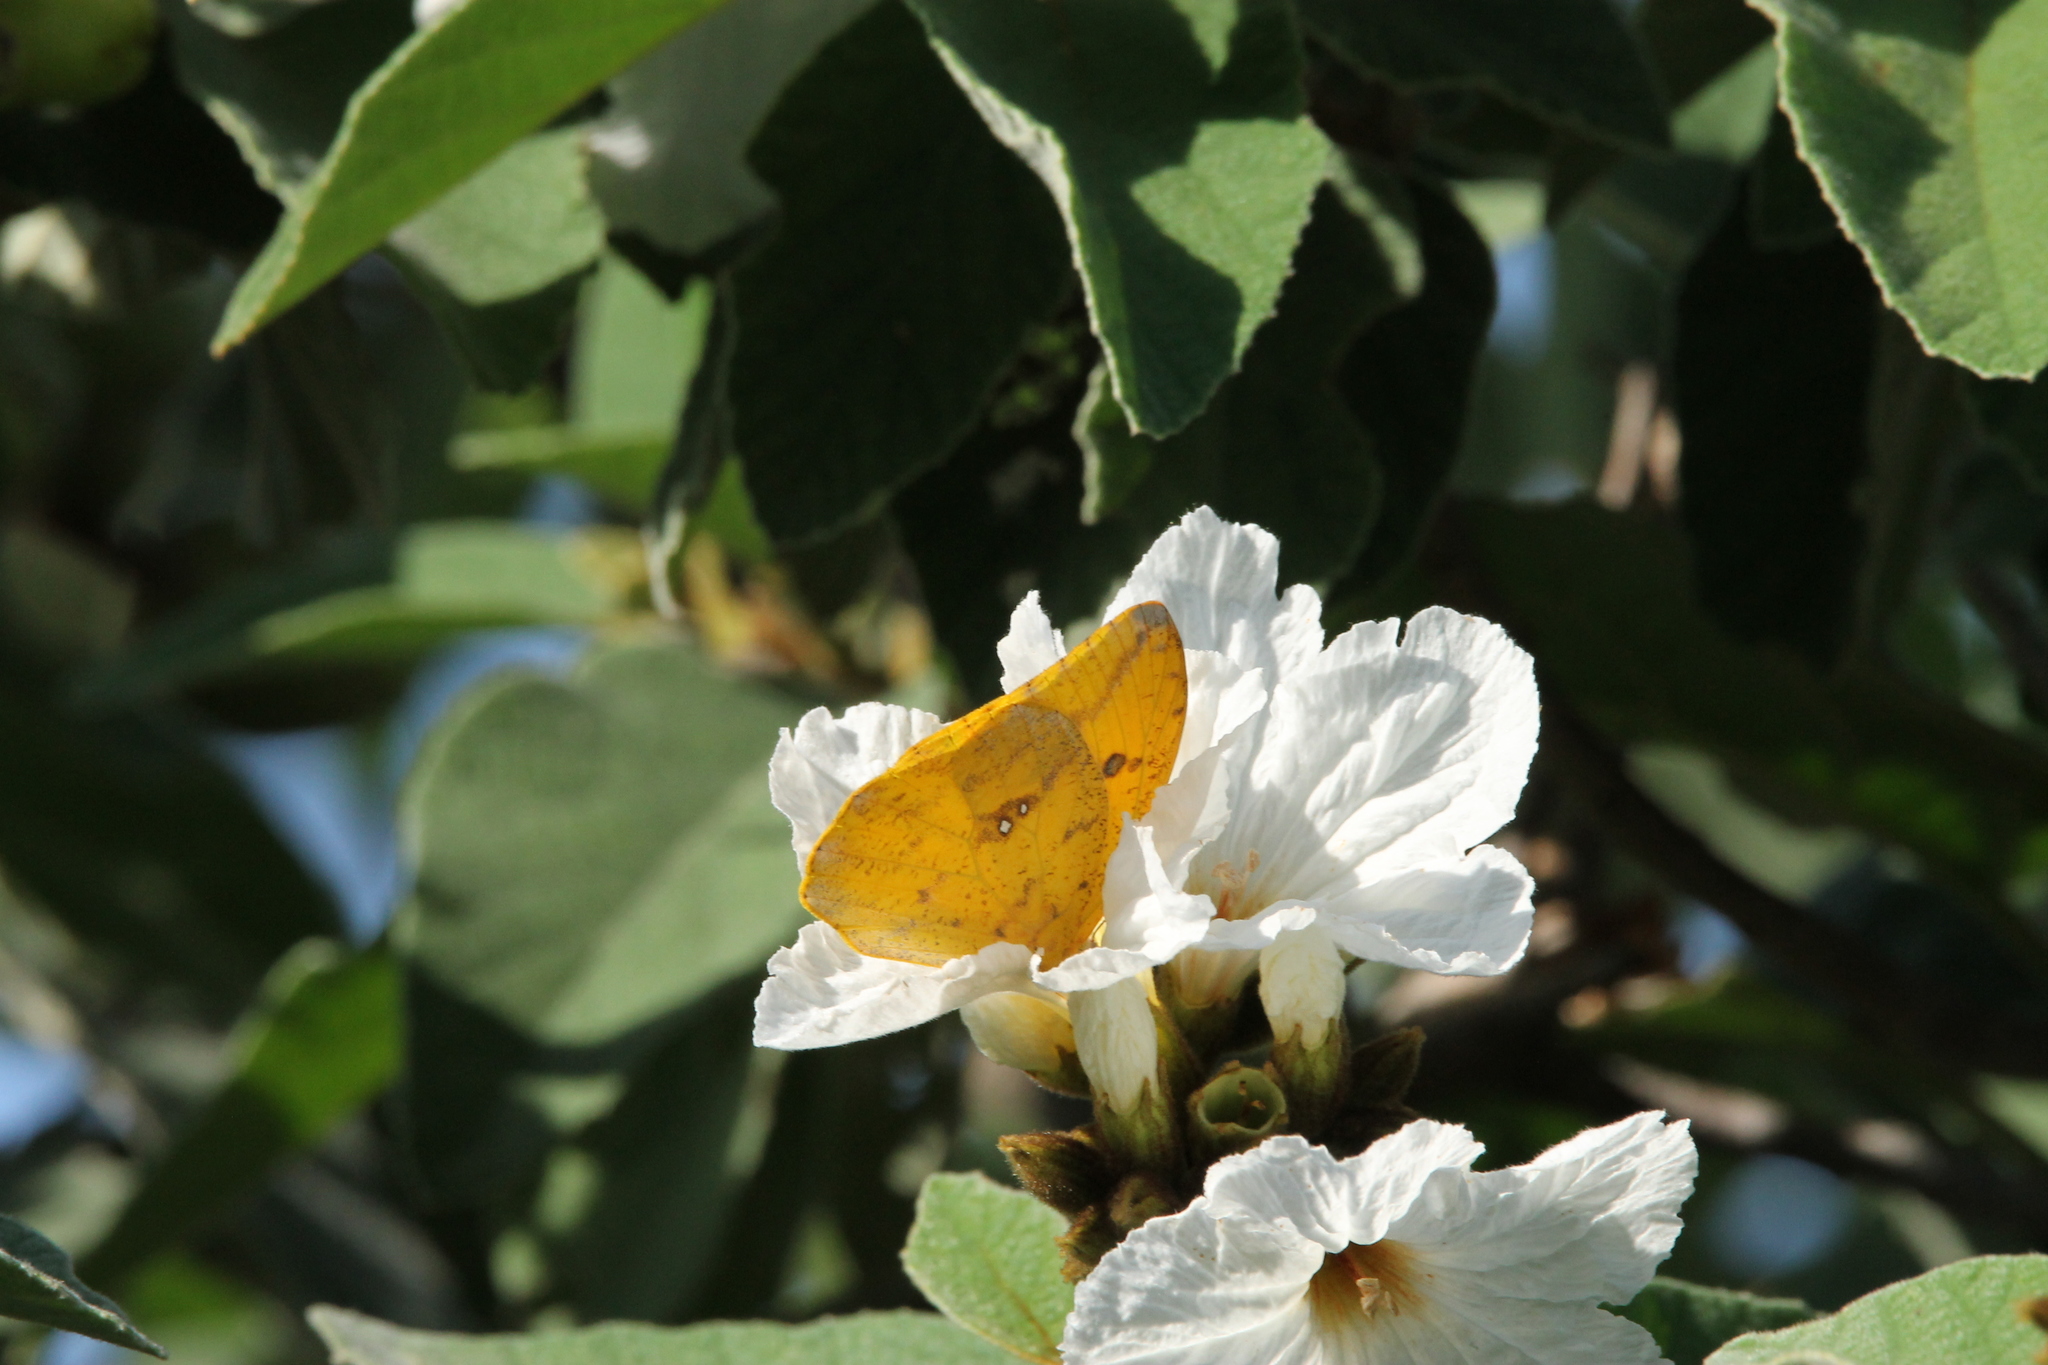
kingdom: Plantae
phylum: Tracheophyta
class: Magnoliopsida
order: Boraginales
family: Cordiaceae
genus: Cordia
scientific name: Cordia boissieri
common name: Mexican-olive
